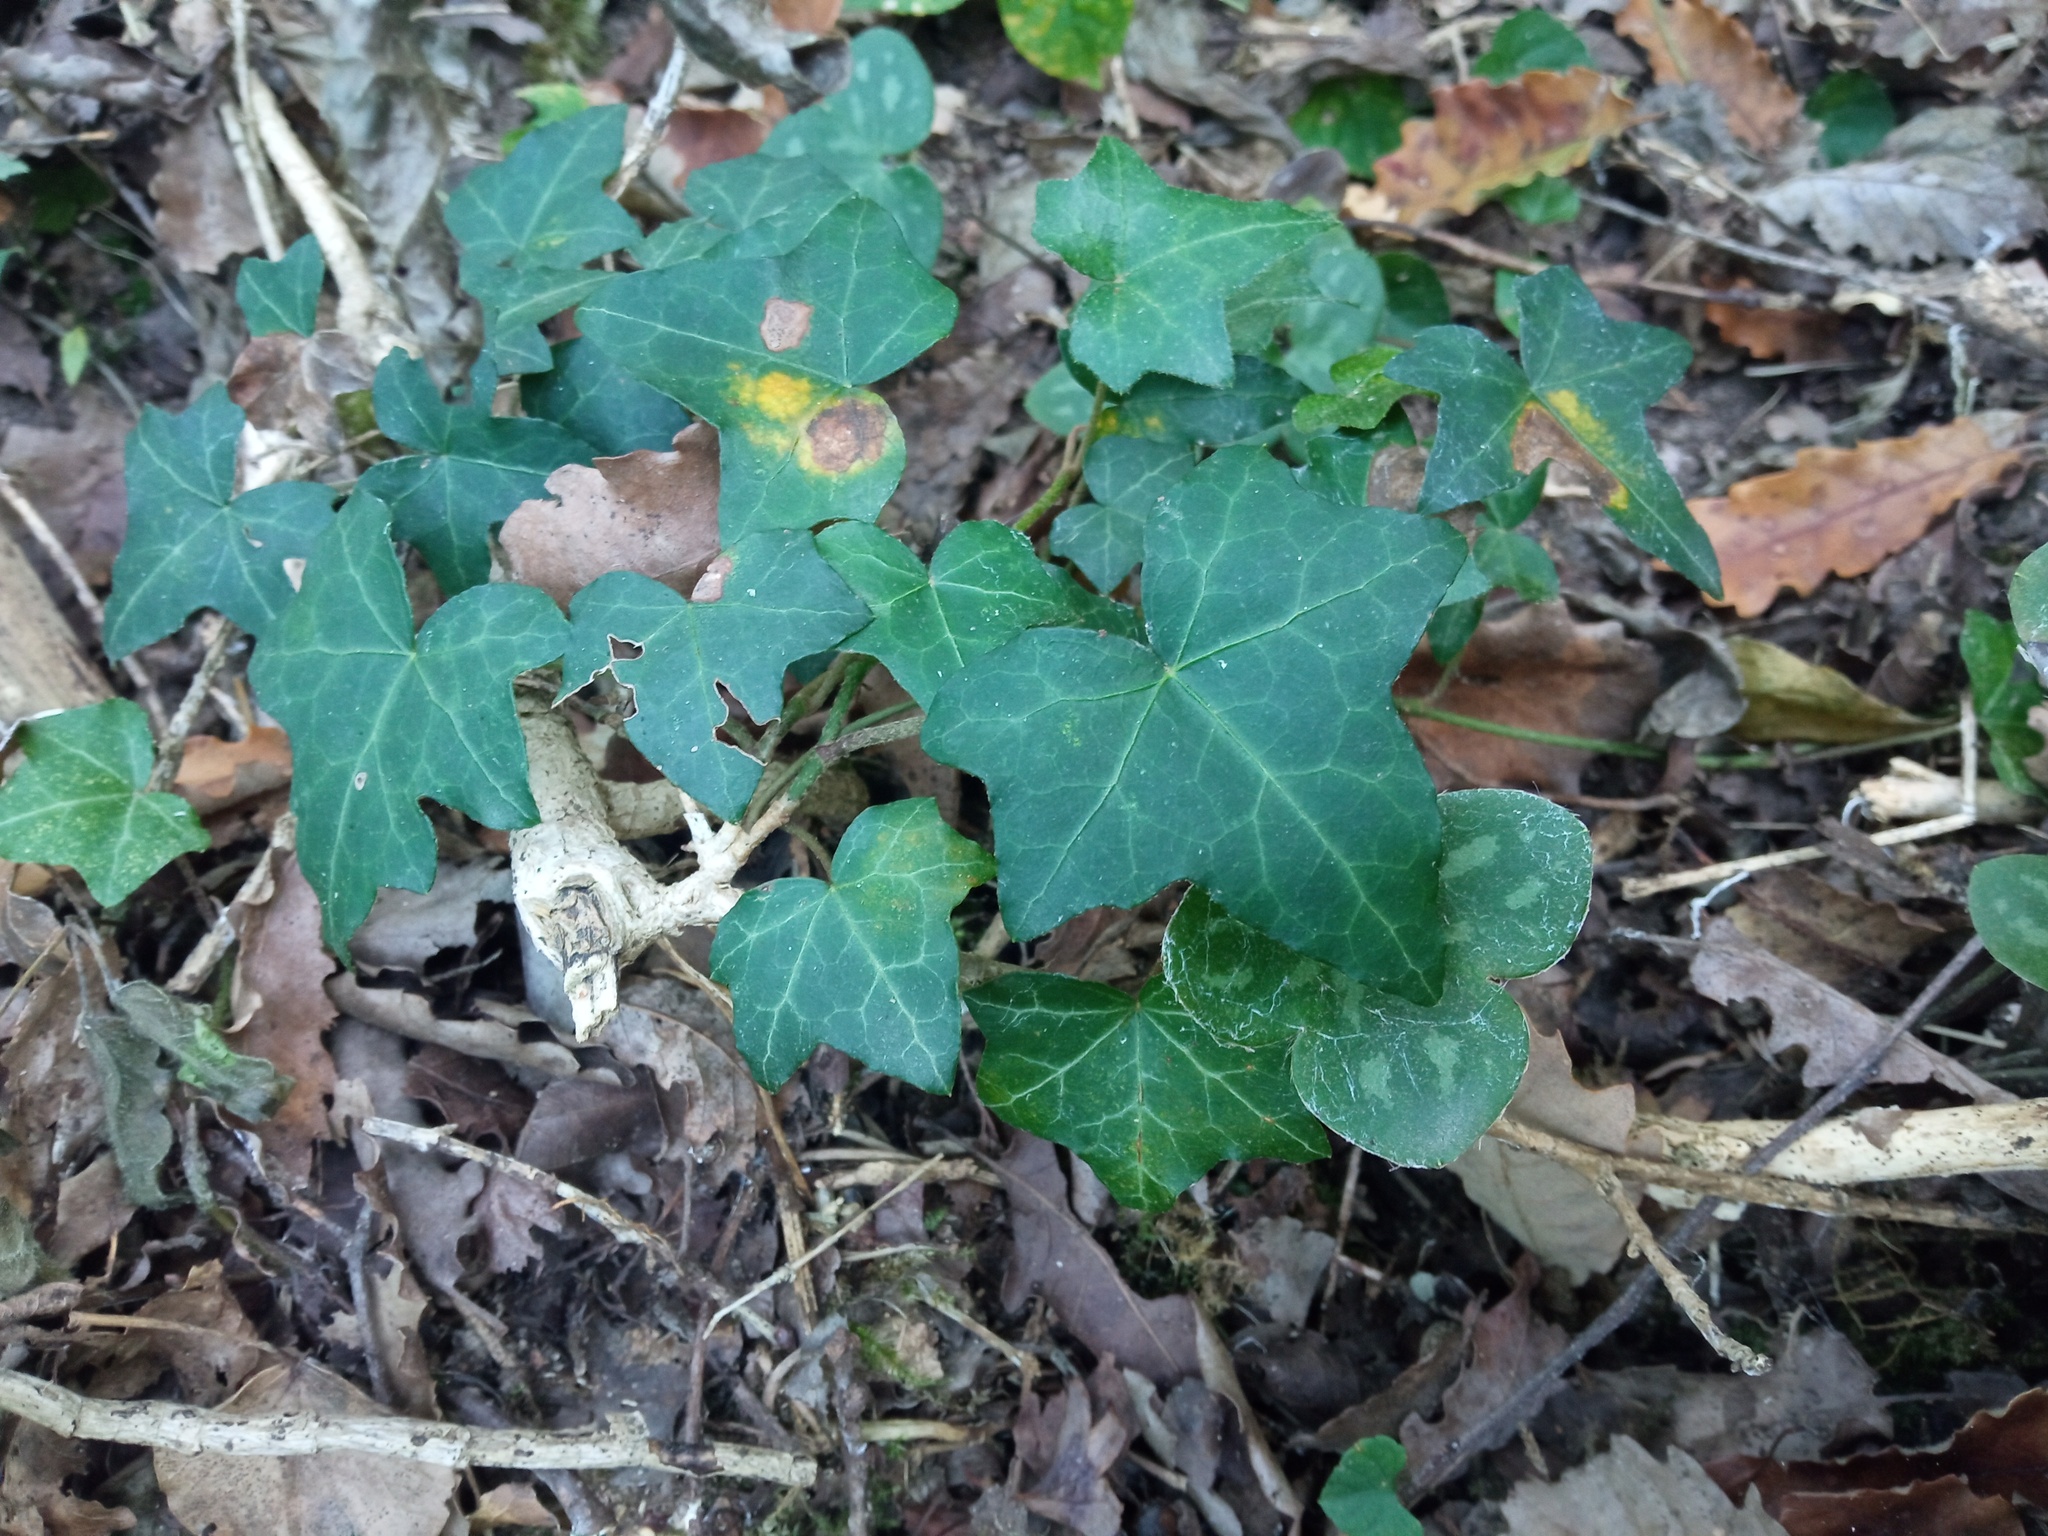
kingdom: Plantae
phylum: Tracheophyta
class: Magnoliopsida
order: Apiales
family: Araliaceae
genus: Hedera
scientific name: Hedera helix
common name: Ivy
